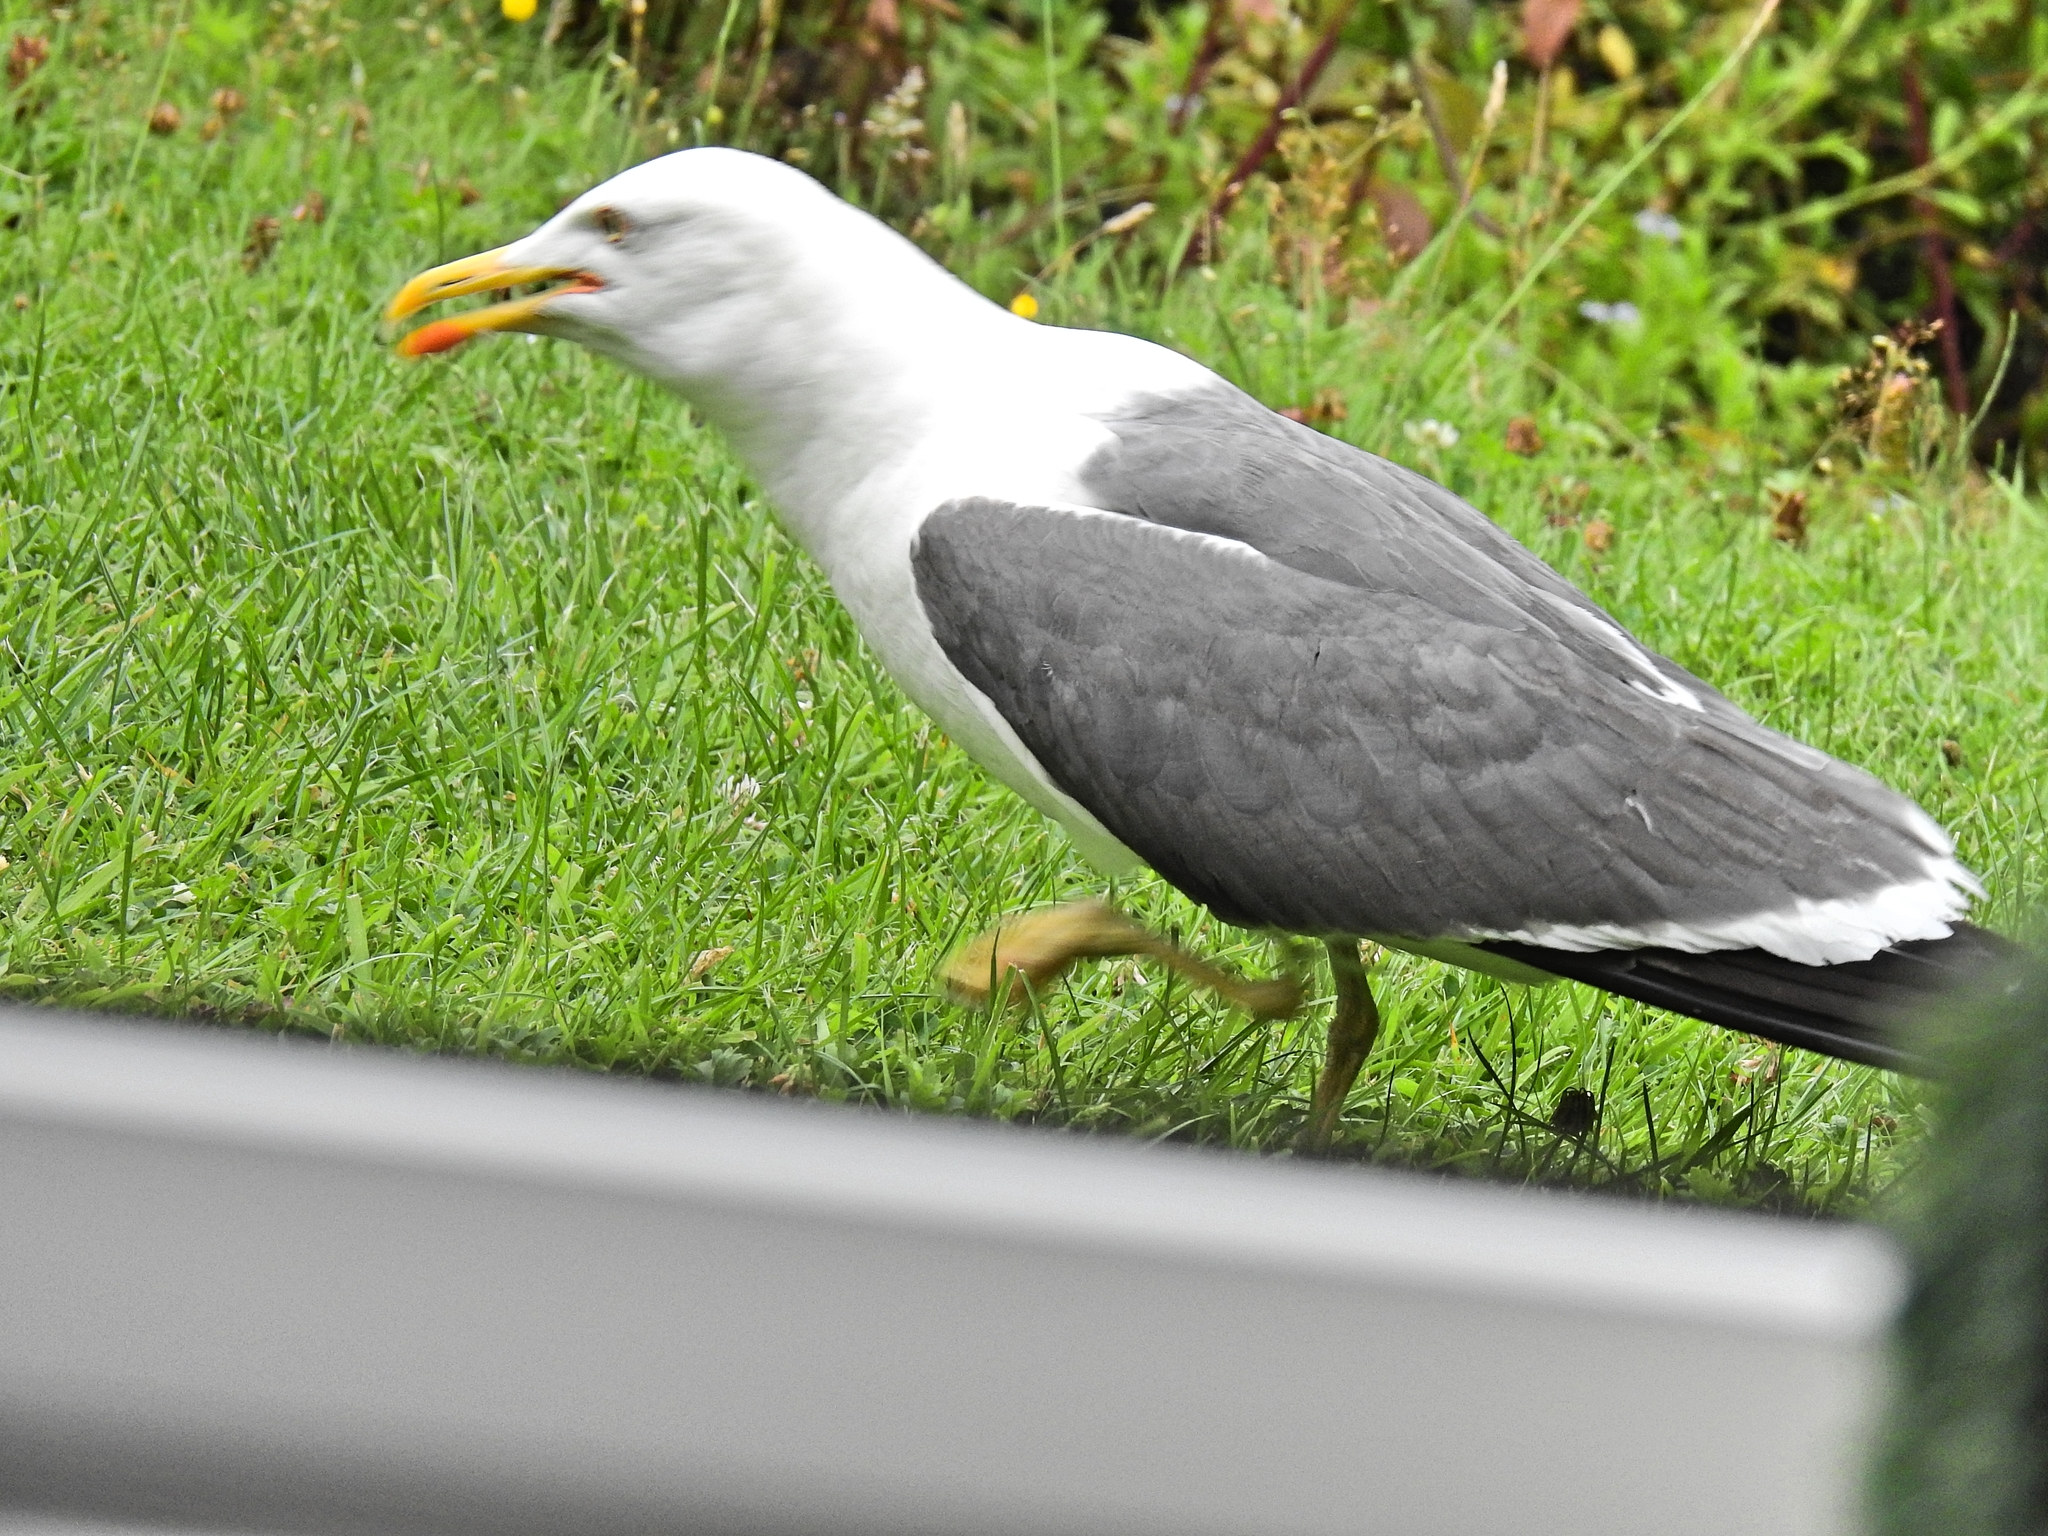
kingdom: Animalia
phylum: Chordata
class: Aves
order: Charadriiformes
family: Laridae
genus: Larus
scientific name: Larus fuscus
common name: Lesser black-backed gull
